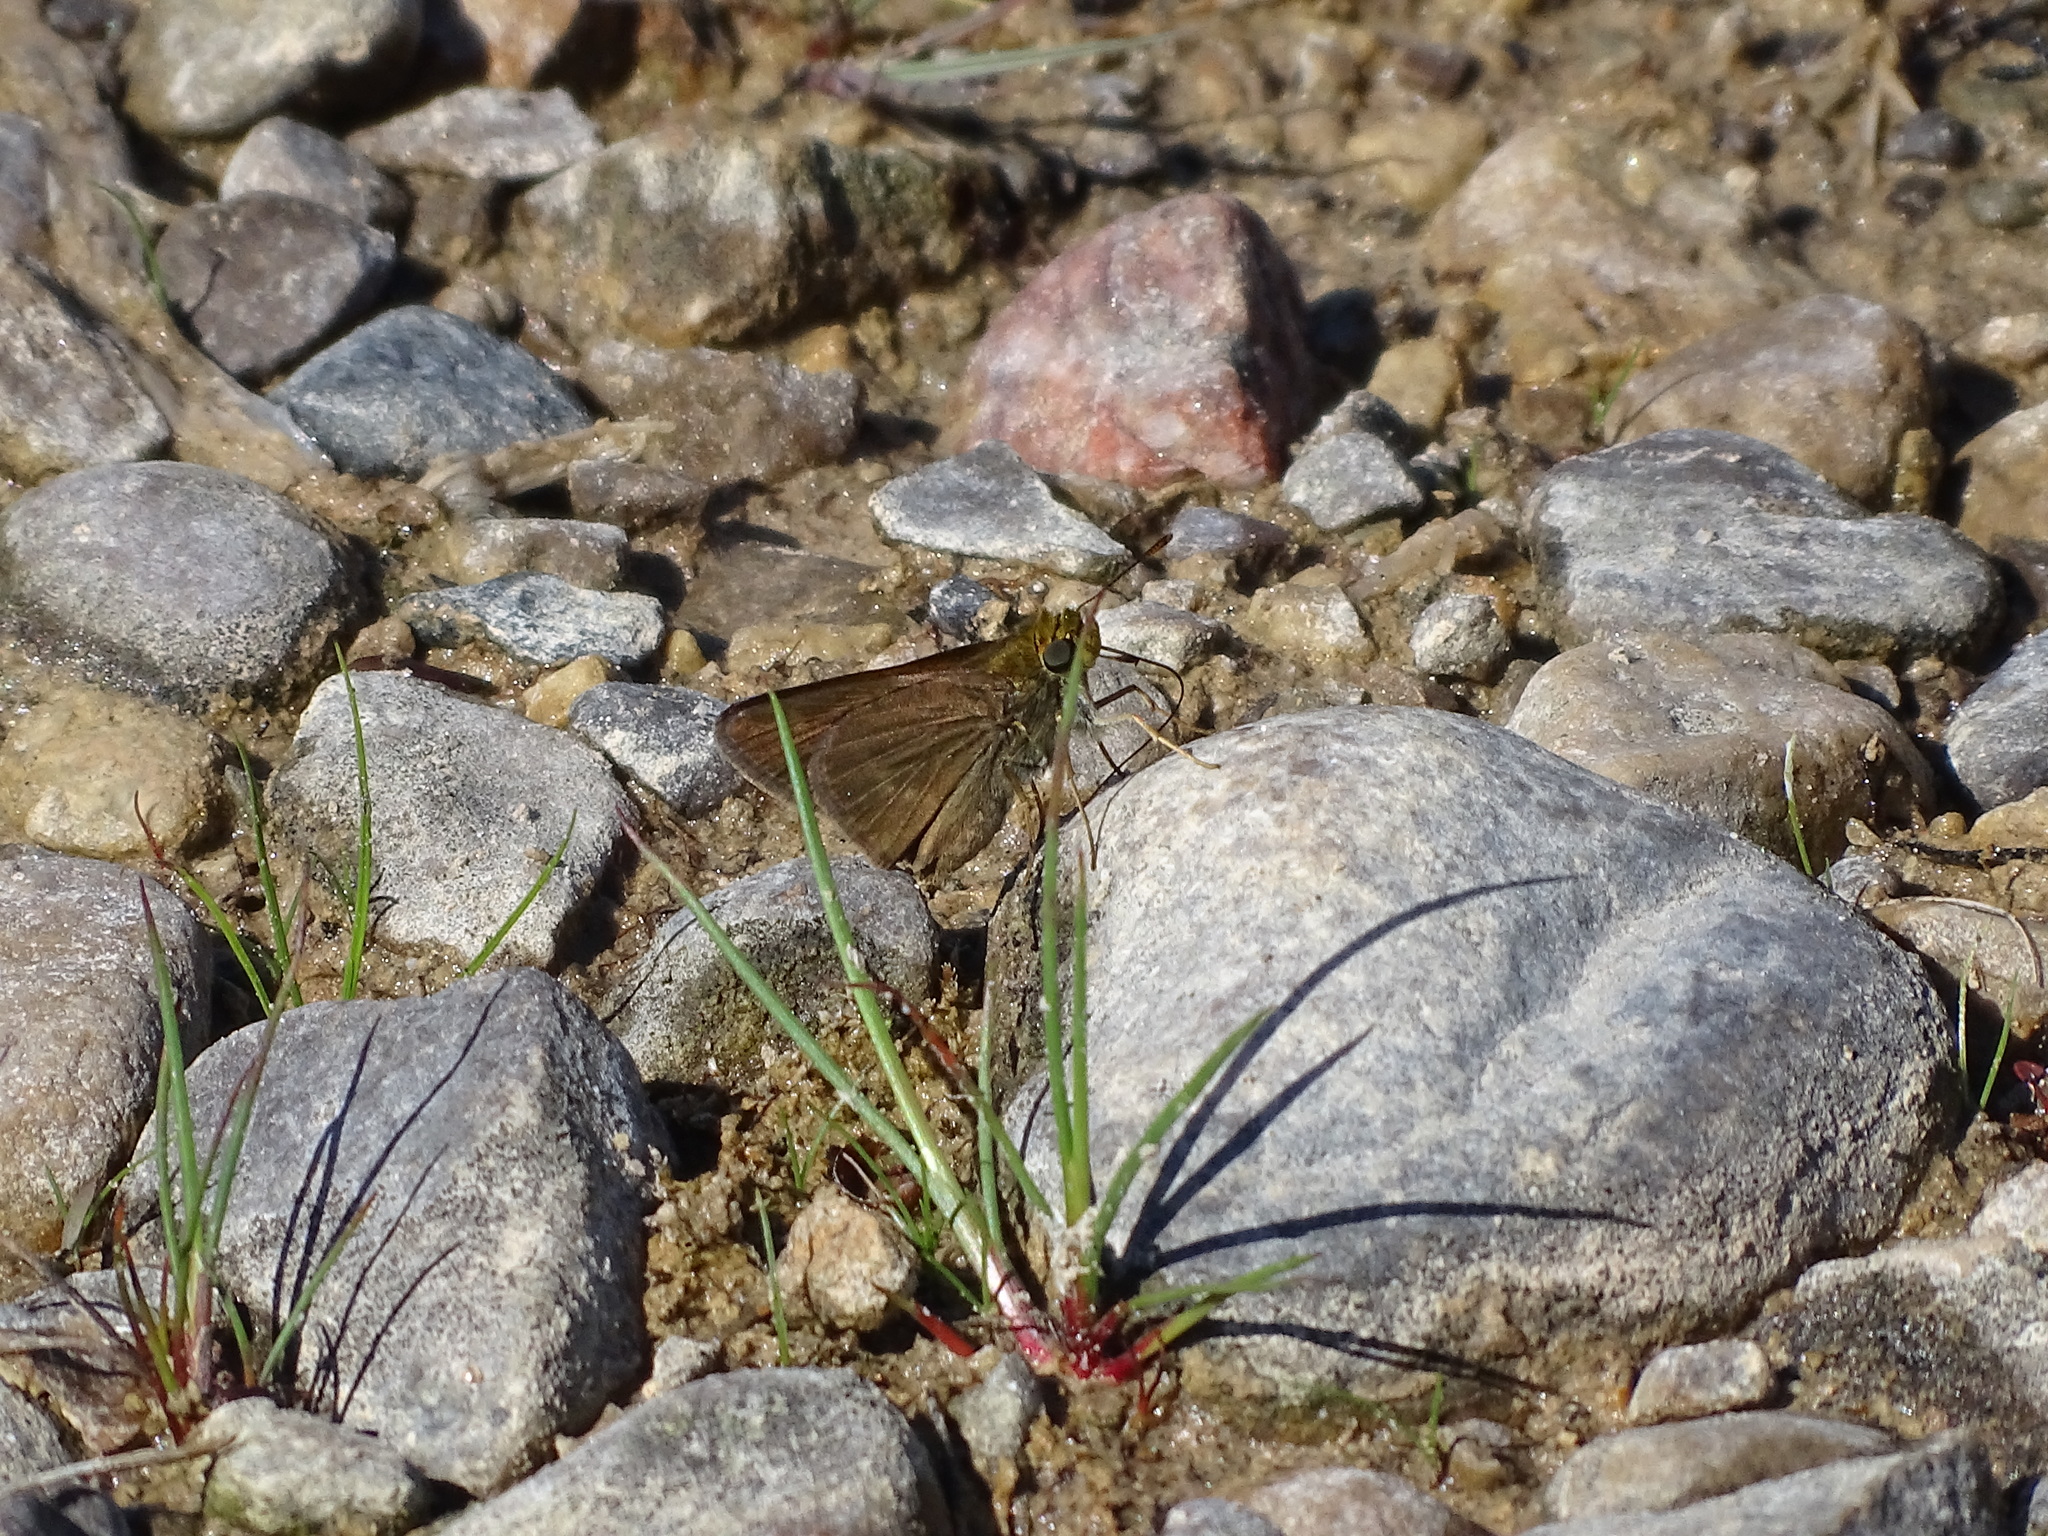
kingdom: Animalia
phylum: Arthropoda
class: Insecta
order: Lepidoptera
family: Hesperiidae
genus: Euphyes
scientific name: Euphyes vestris
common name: Dun skipper
